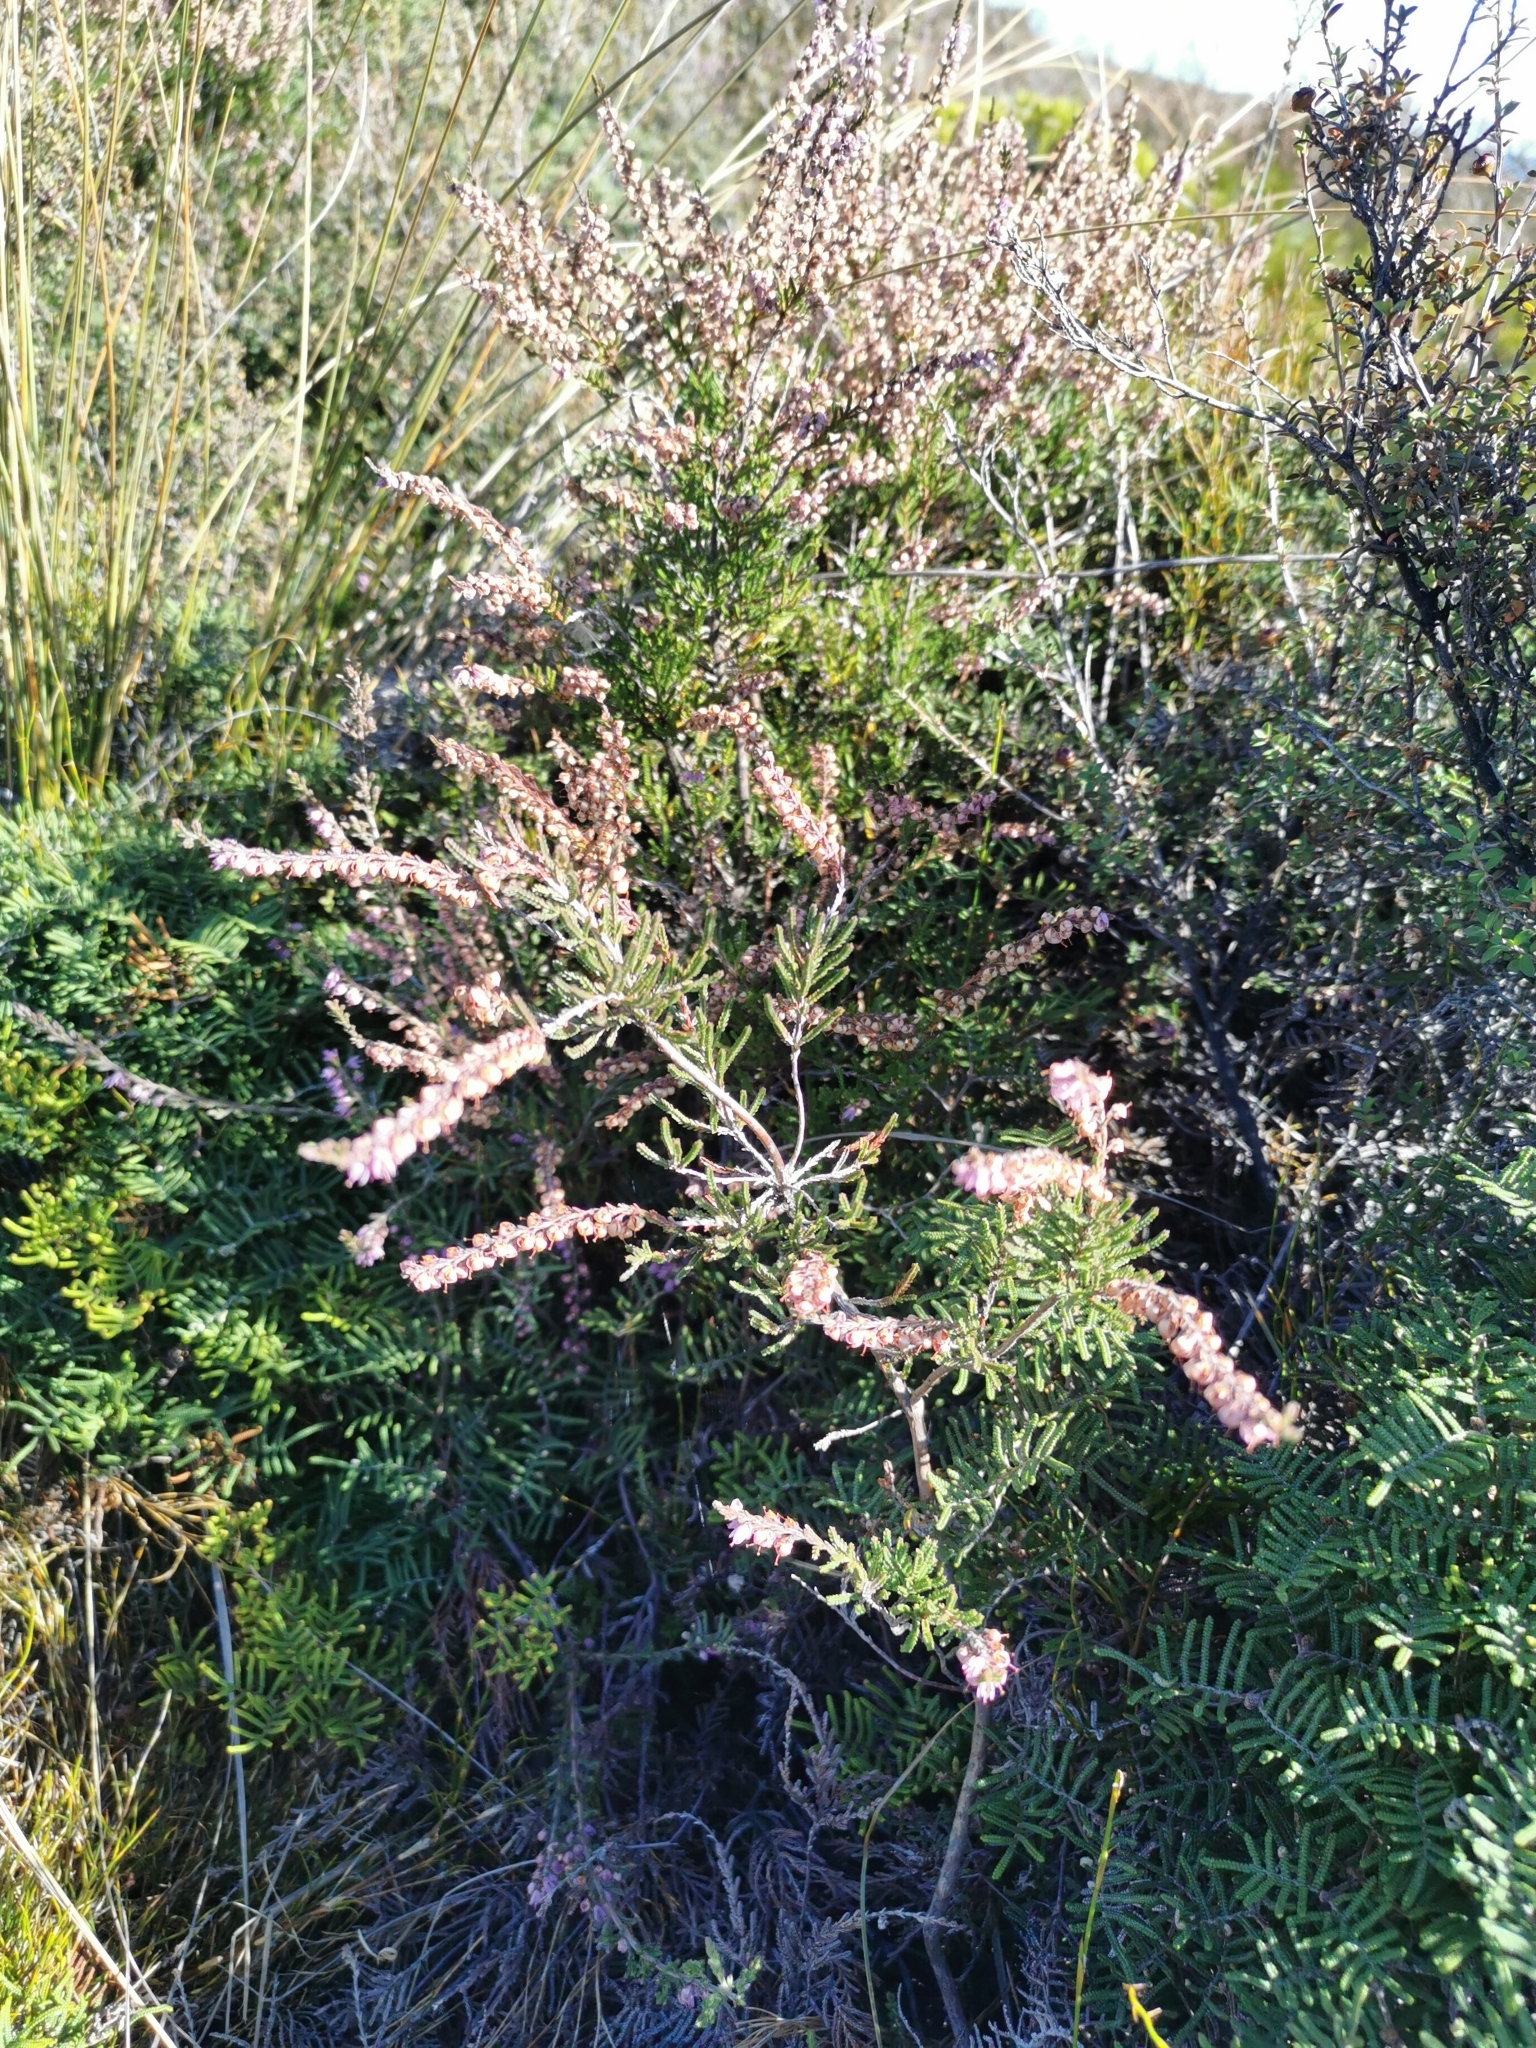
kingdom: Plantae
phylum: Tracheophyta
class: Magnoliopsida
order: Ericales
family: Ericaceae
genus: Calluna
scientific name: Calluna vulgaris
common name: Heather
